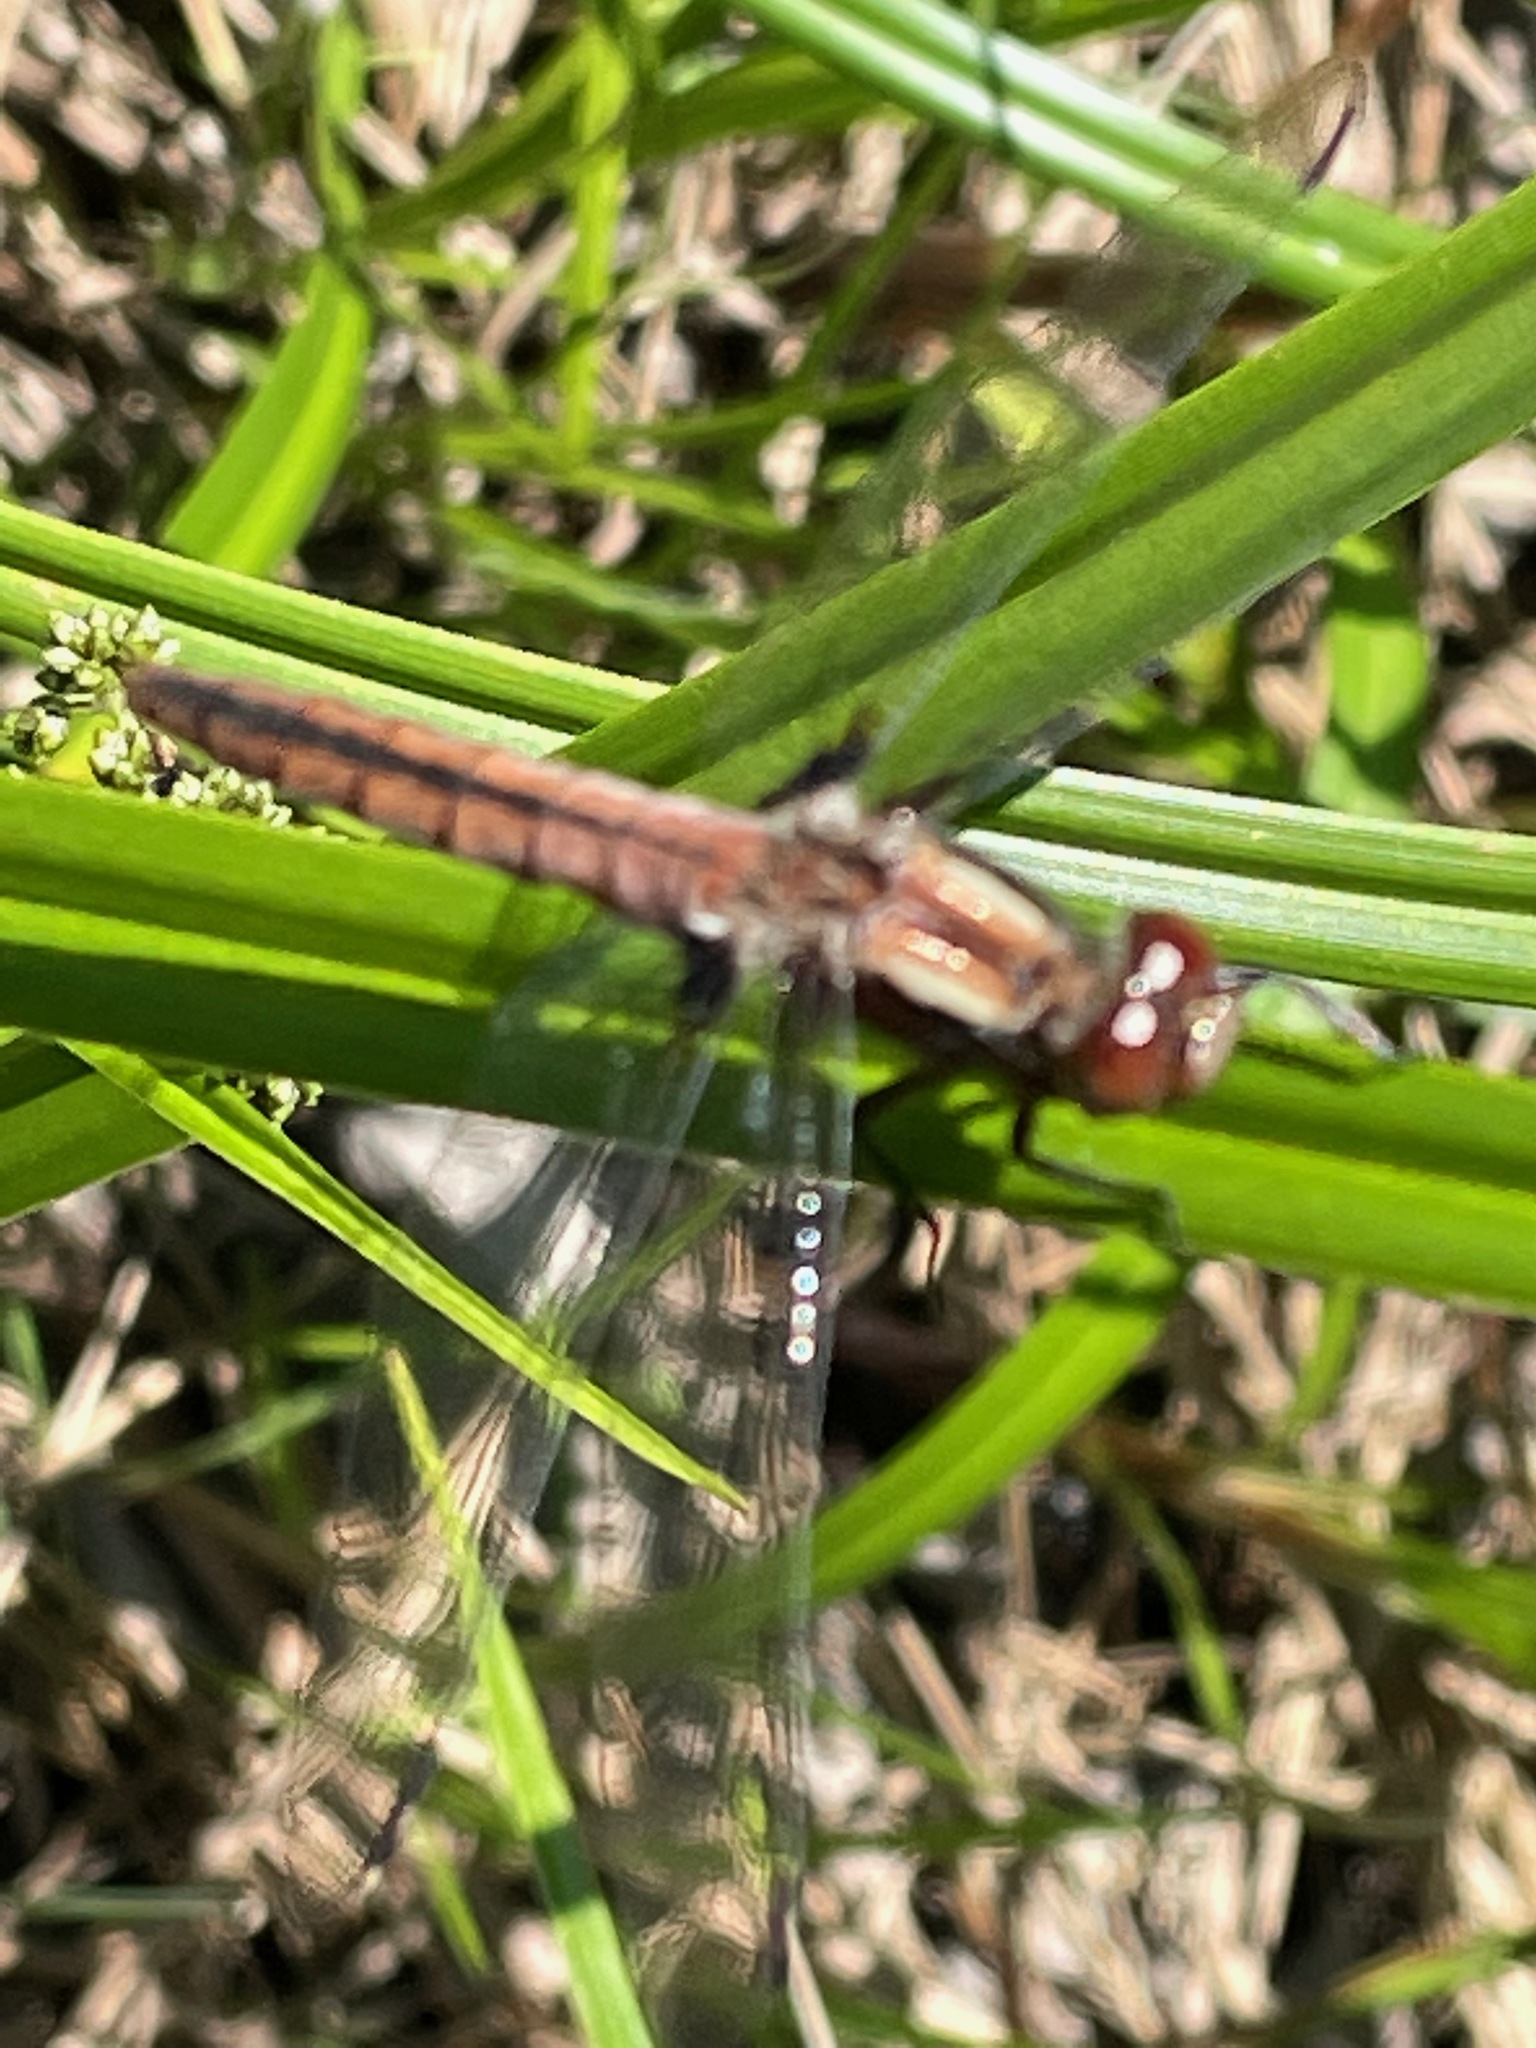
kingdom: Animalia
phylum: Arthropoda
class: Insecta
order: Odonata
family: Libellulidae
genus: Ladona
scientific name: Ladona julia
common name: Chalk-fronted corporal
